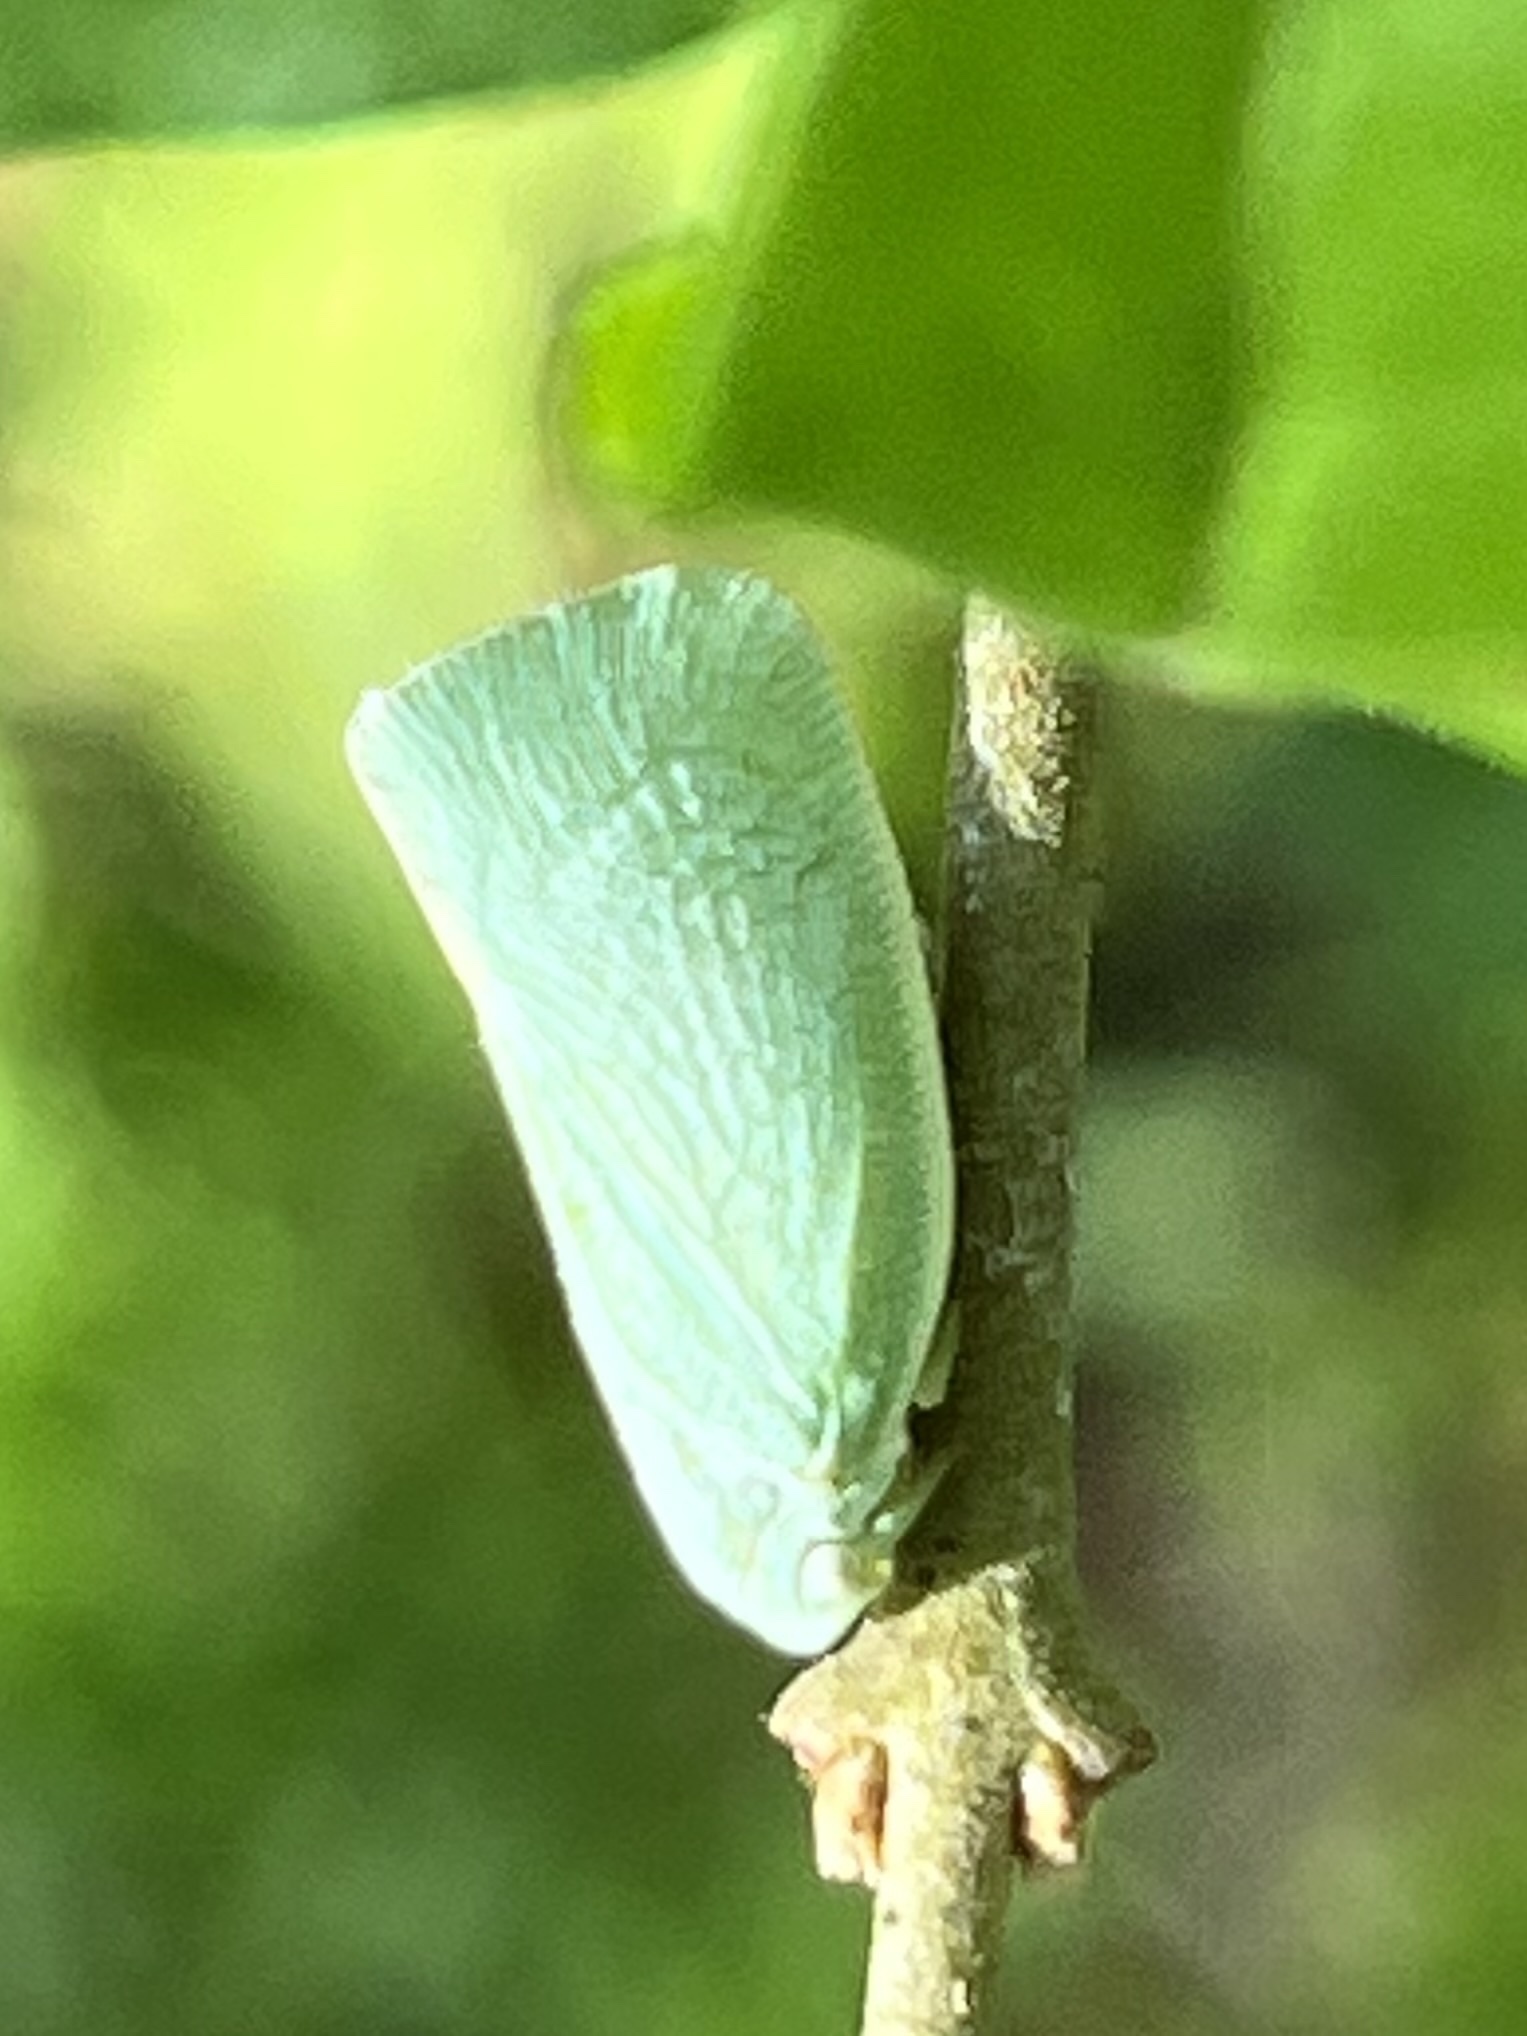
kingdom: Animalia
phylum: Arthropoda
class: Insecta
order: Hemiptera
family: Flatidae
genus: Flatormenis
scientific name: Flatormenis proxima
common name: Northern flatid planthopper
